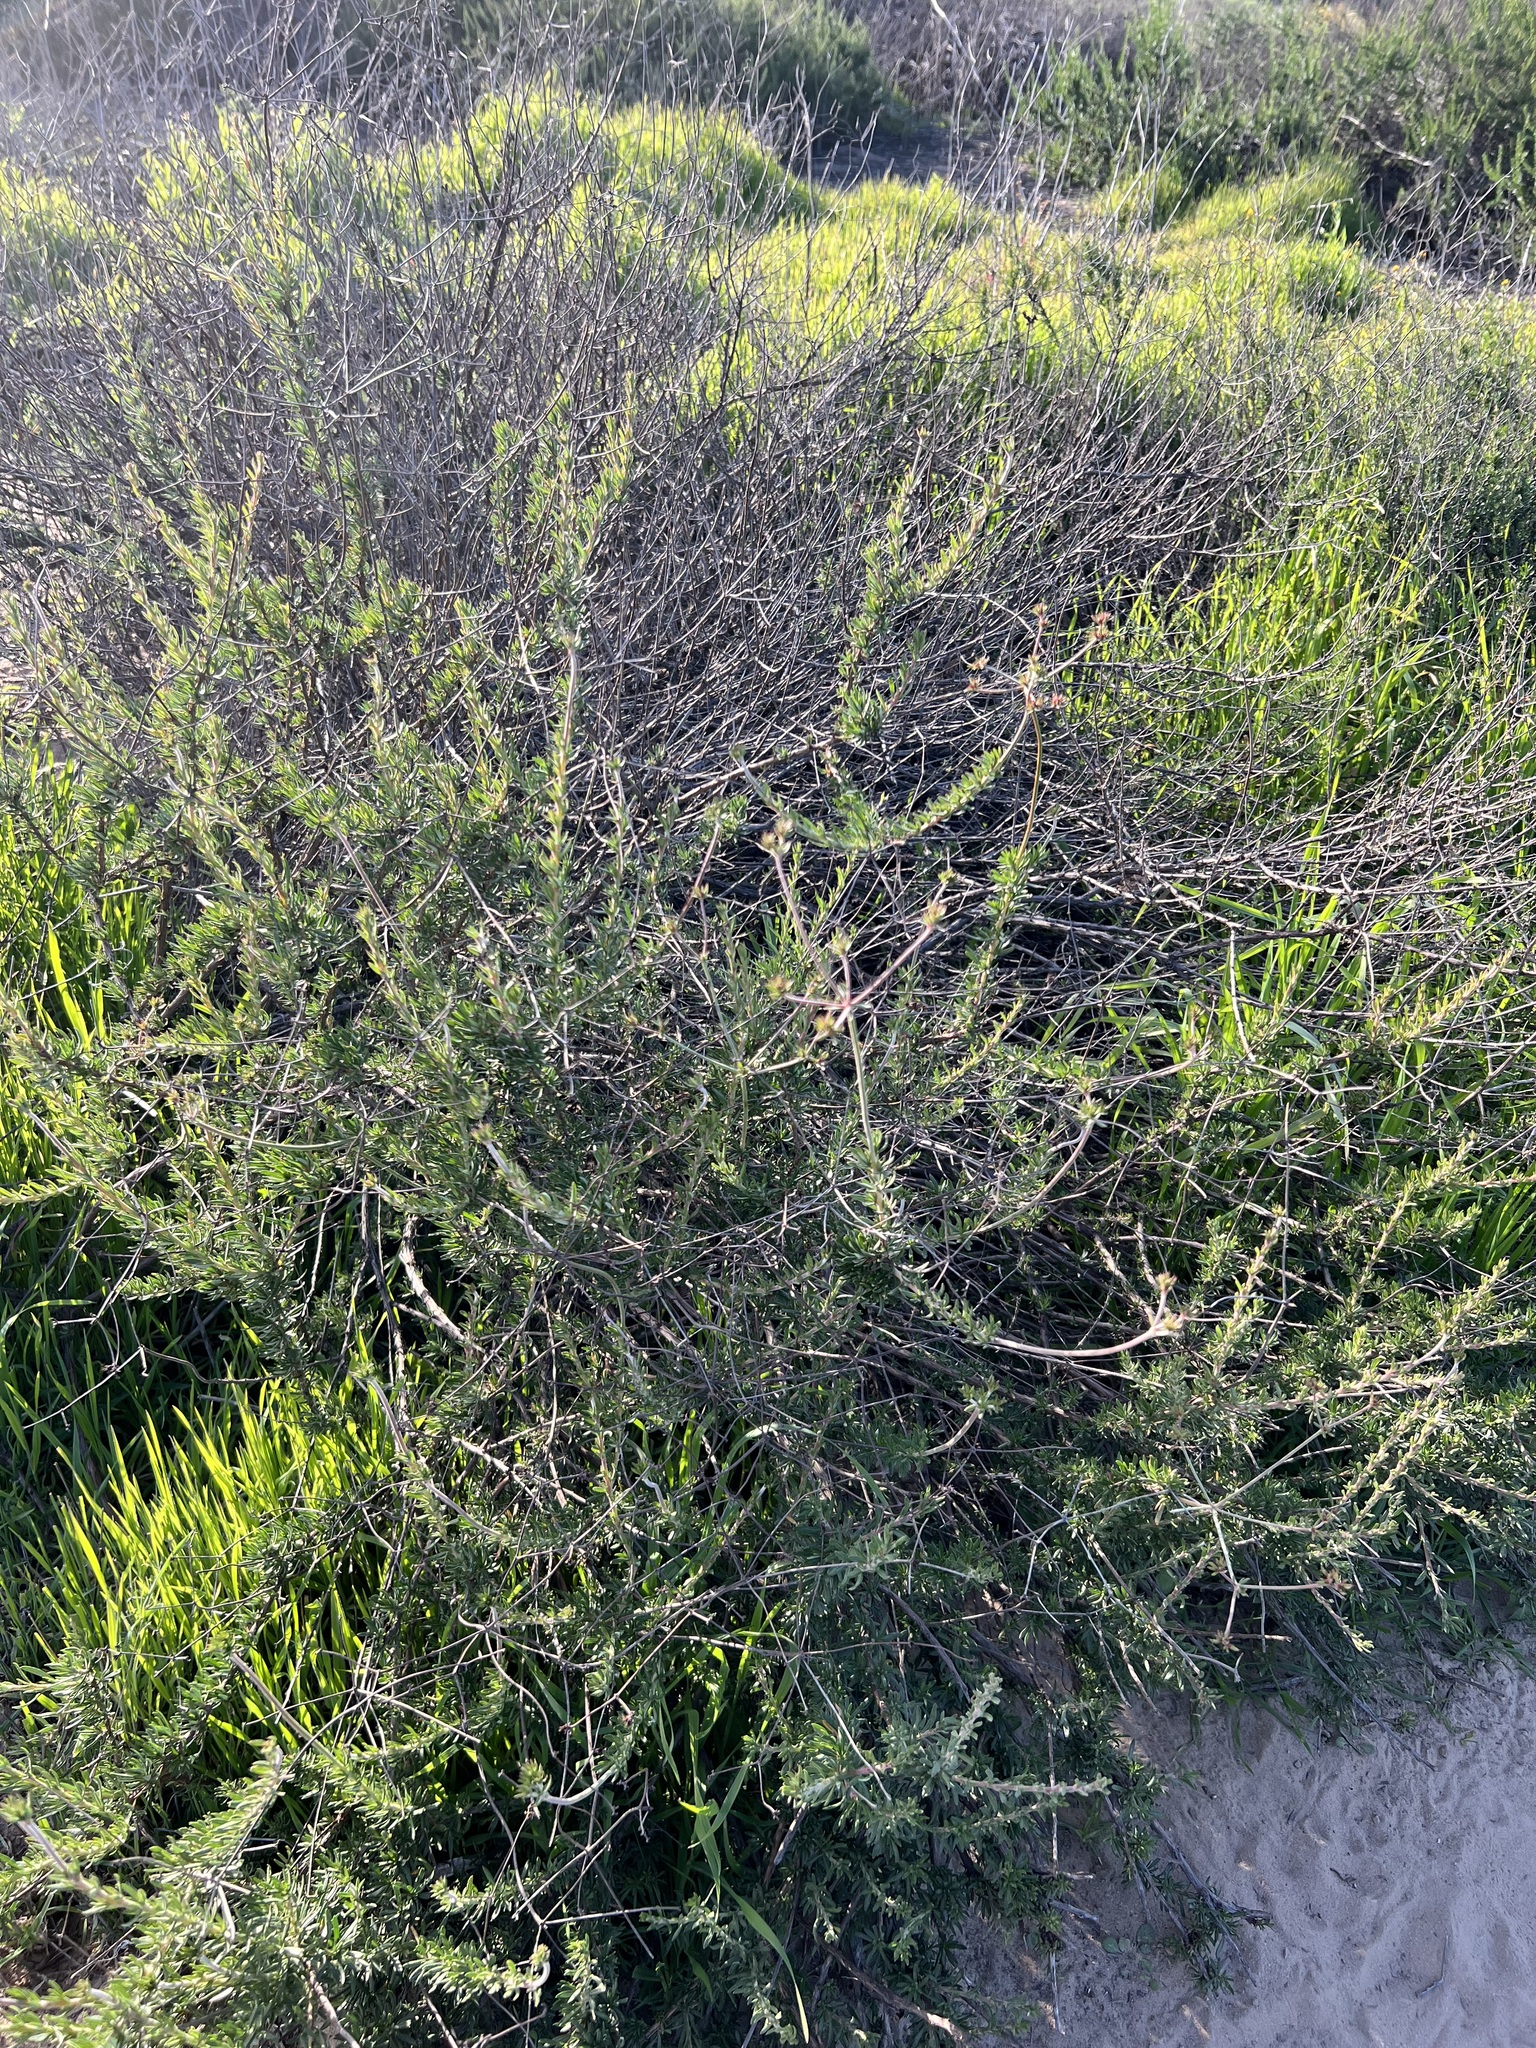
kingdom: Plantae
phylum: Tracheophyta
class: Magnoliopsida
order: Caryophyllales
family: Polygonaceae
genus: Eriogonum
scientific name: Eriogonum fasciculatum
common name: California wild buckwheat
